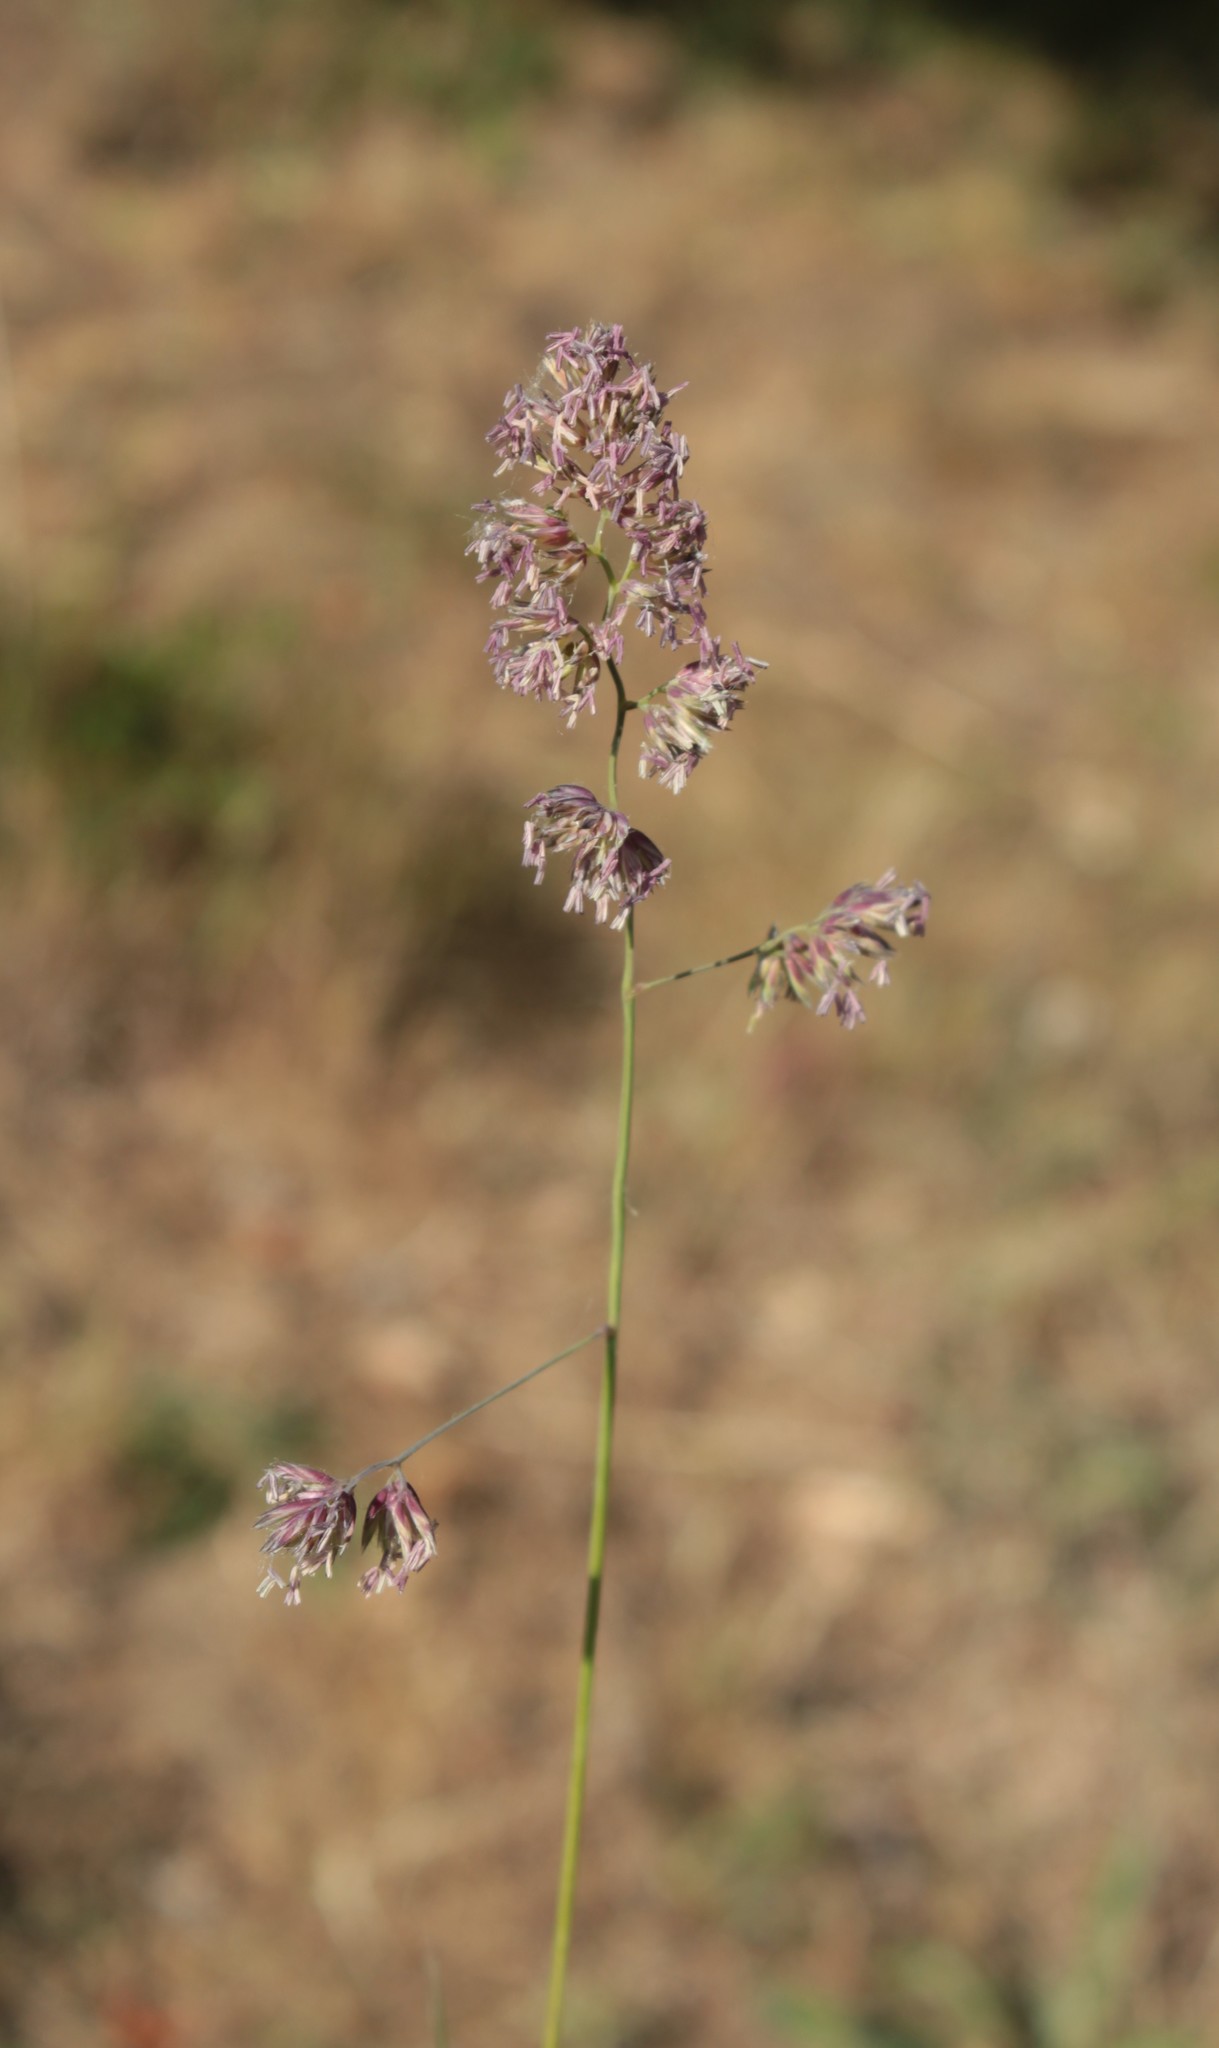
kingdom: Plantae
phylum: Tracheophyta
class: Liliopsida
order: Poales
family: Poaceae
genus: Dactylis
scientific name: Dactylis glomerata
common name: Orchardgrass
